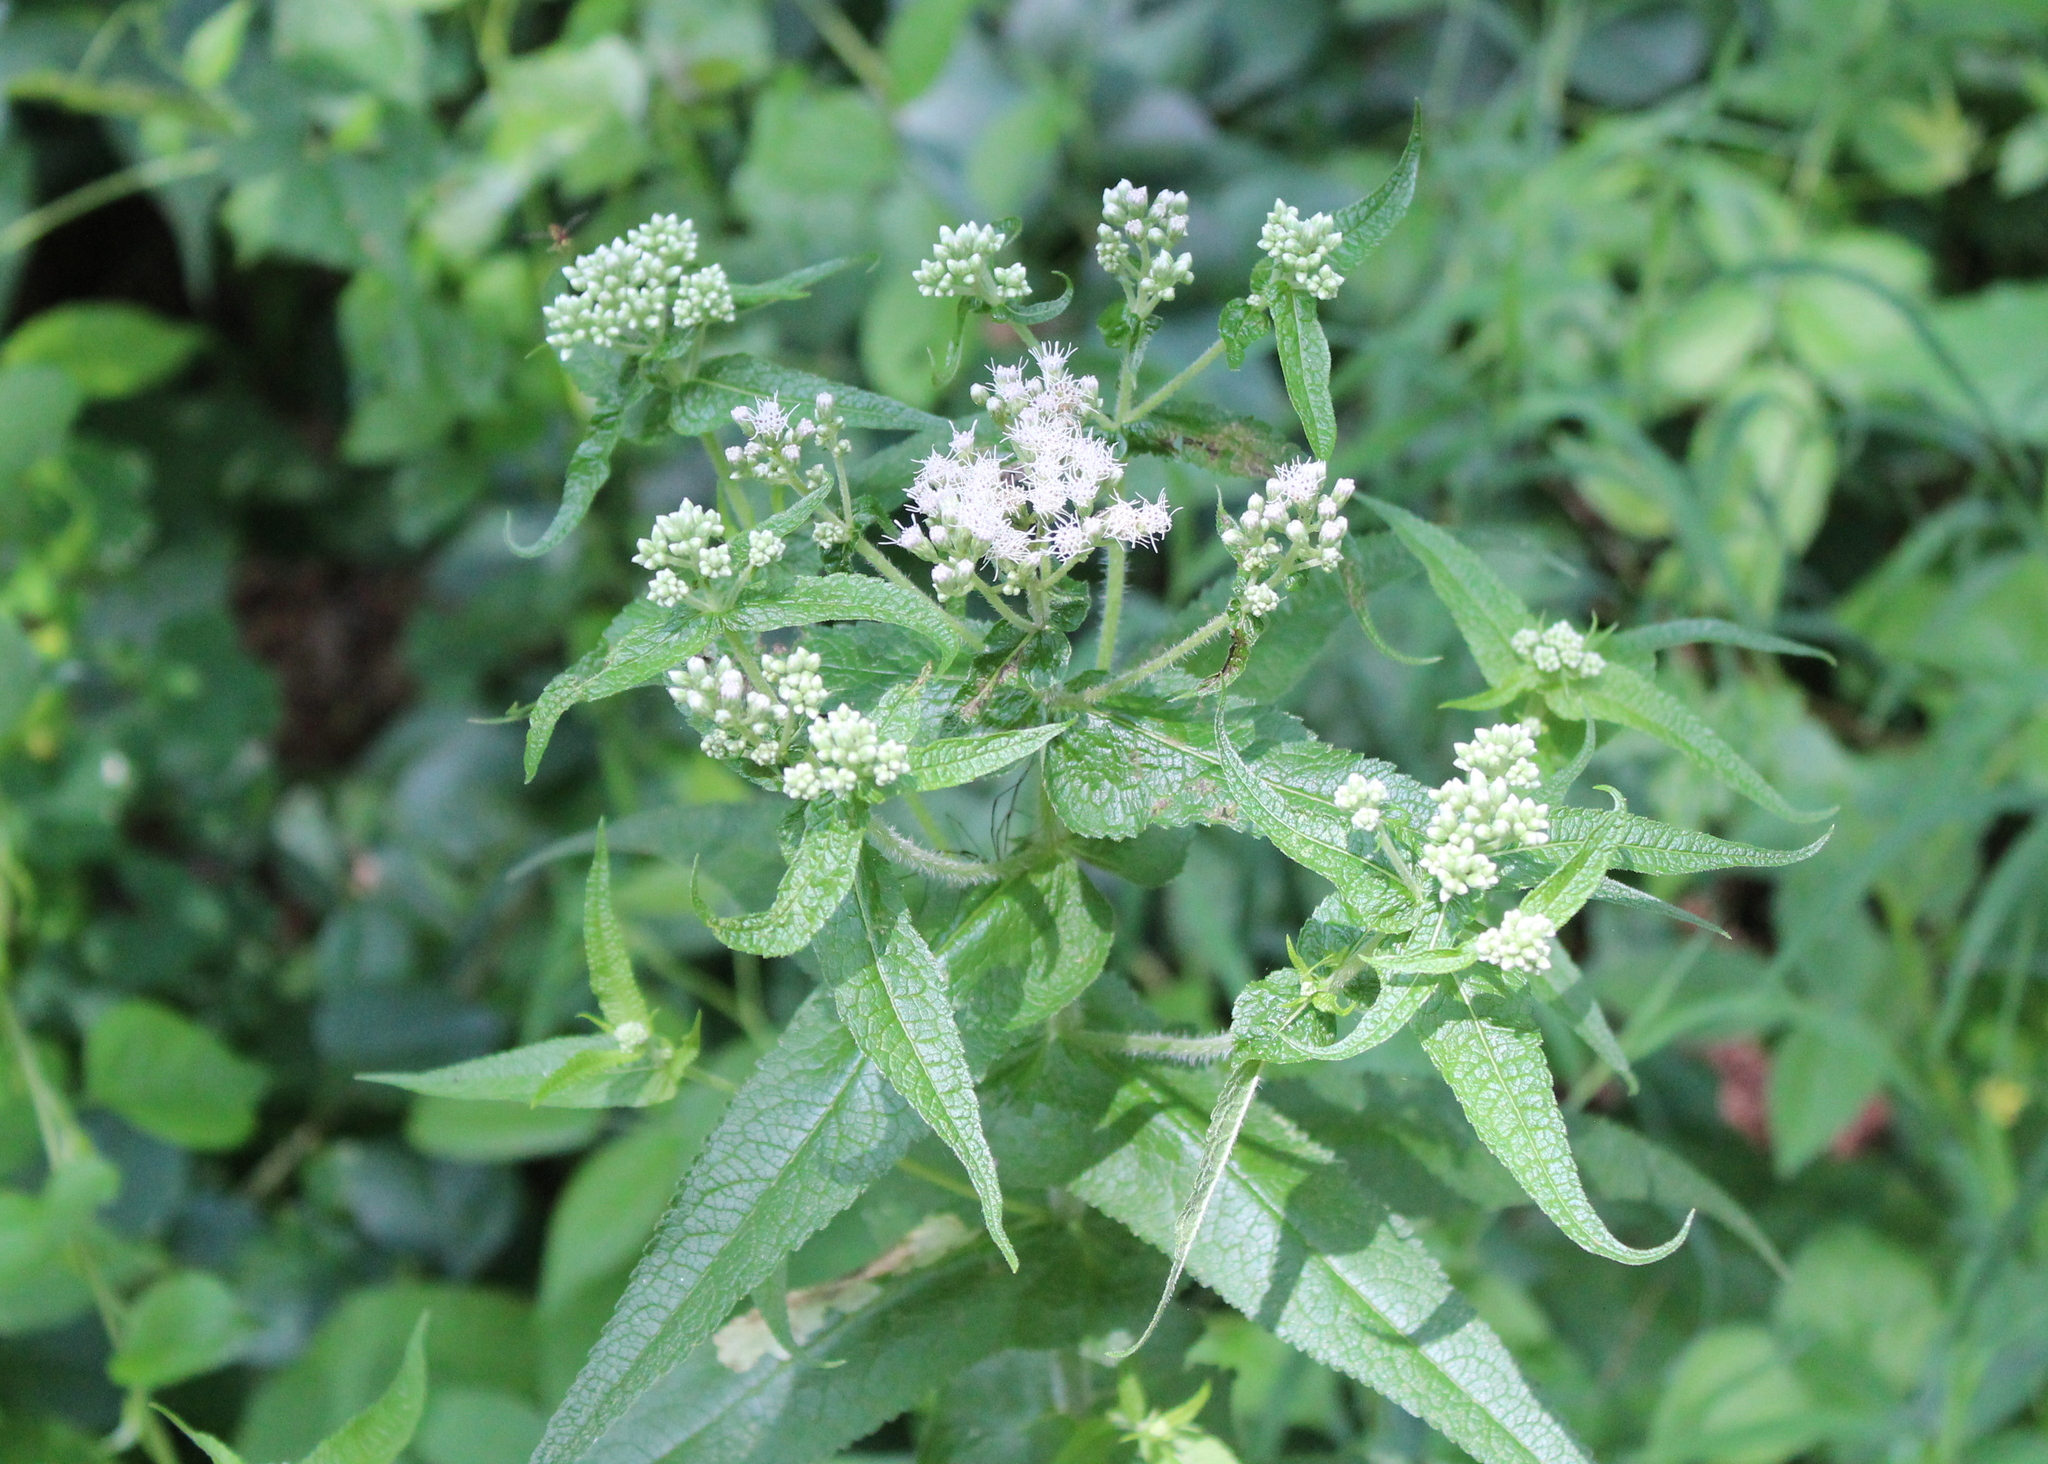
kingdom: Plantae
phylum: Tracheophyta
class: Magnoliopsida
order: Asterales
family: Asteraceae
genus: Eupatorium
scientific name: Eupatorium perfoliatum
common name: Boneset
